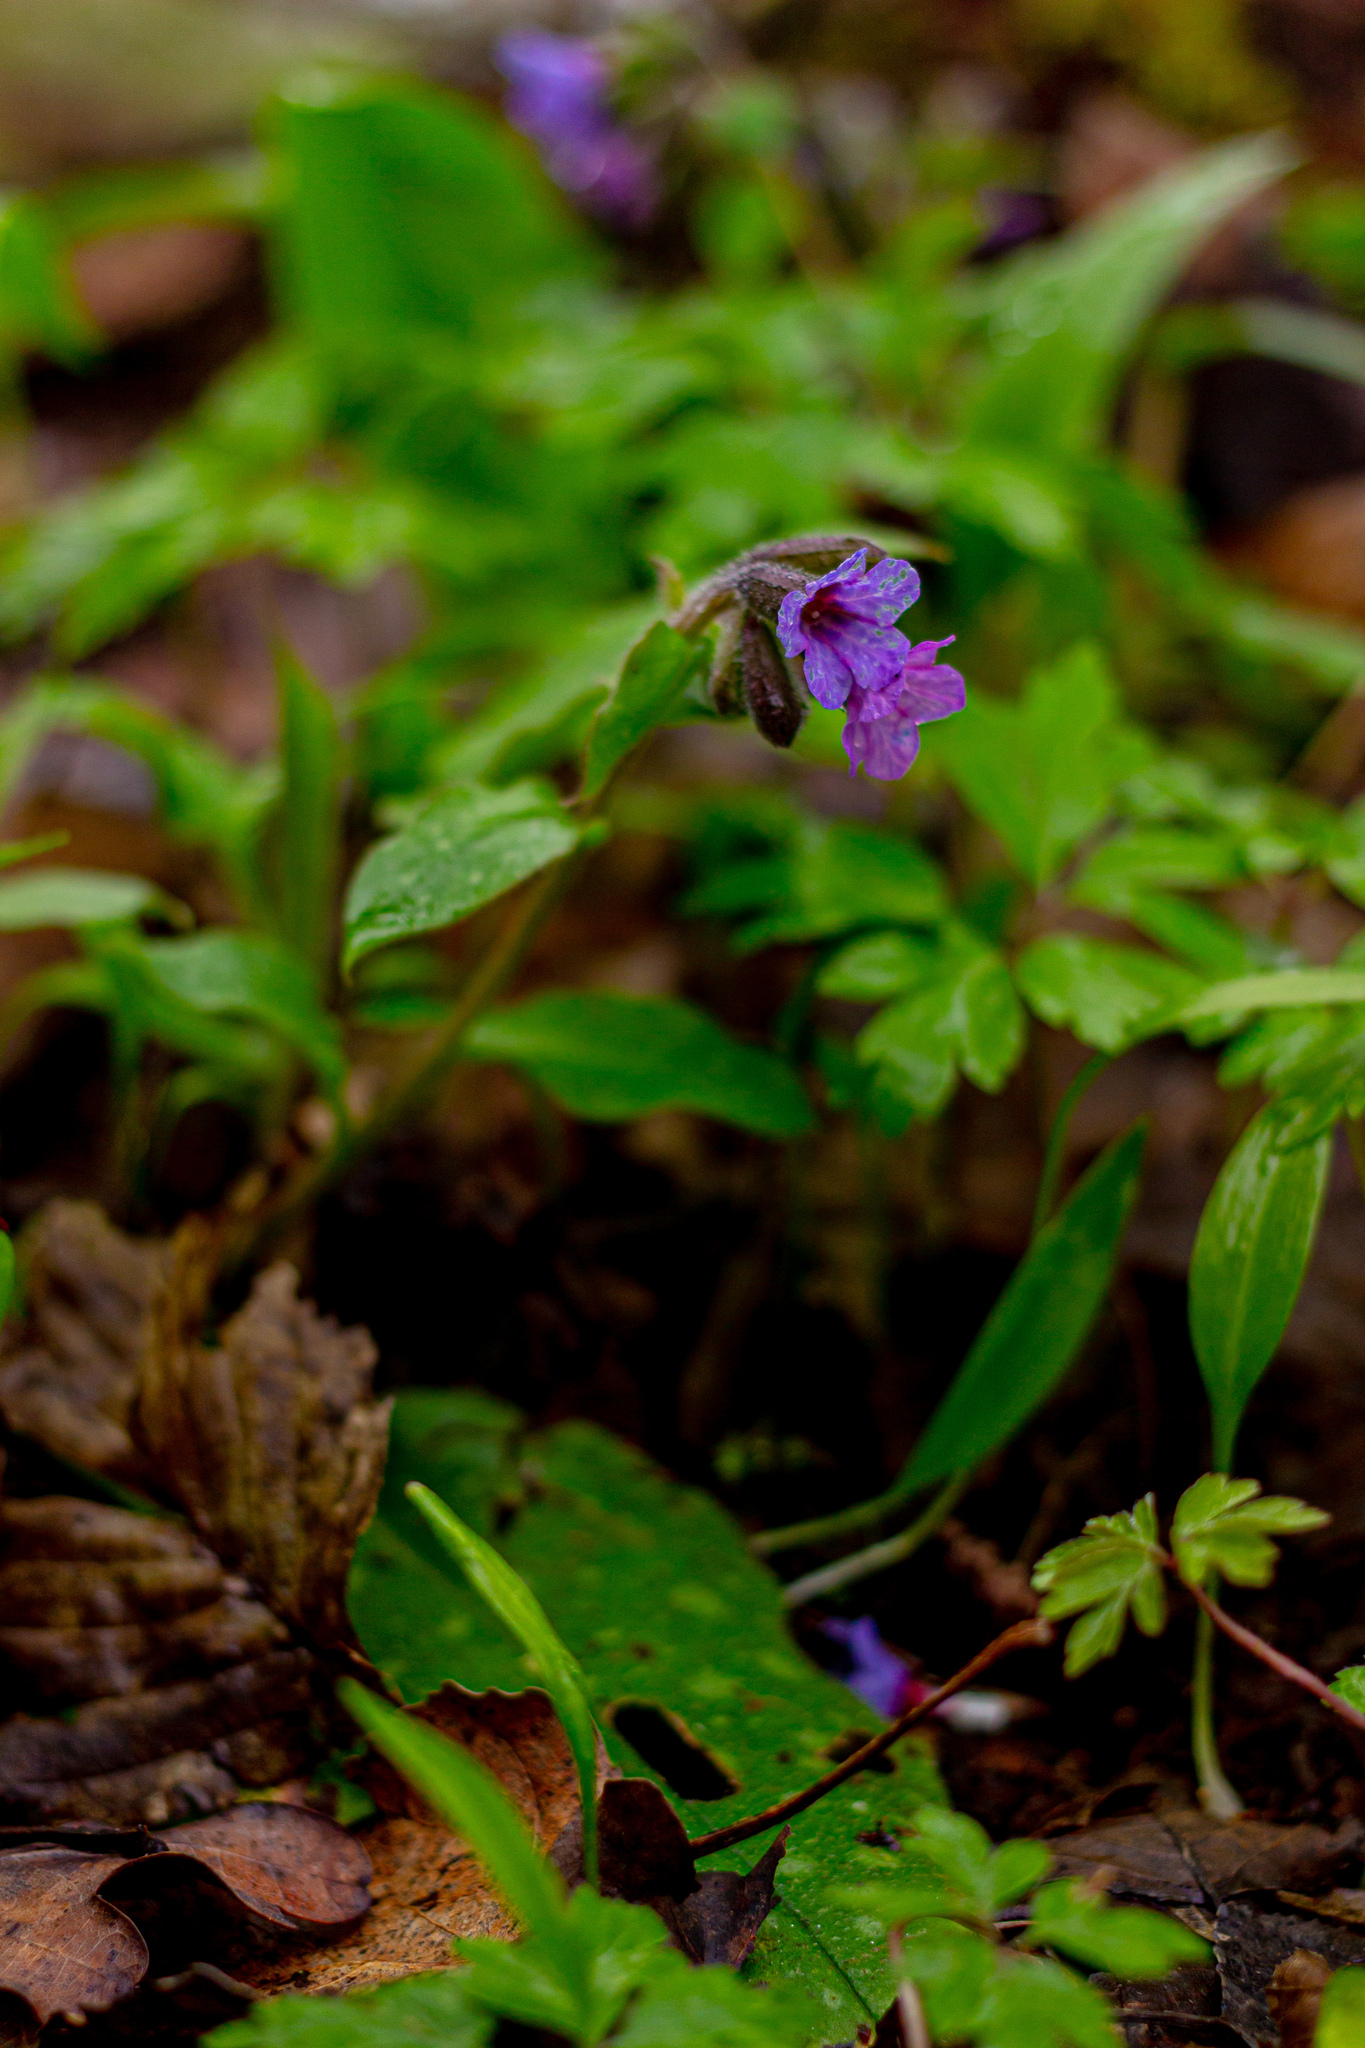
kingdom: Plantae
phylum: Tracheophyta
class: Magnoliopsida
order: Boraginales
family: Boraginaceae
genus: Pulmonaria
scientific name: Pulmonaria officinalis
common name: Lungwort
